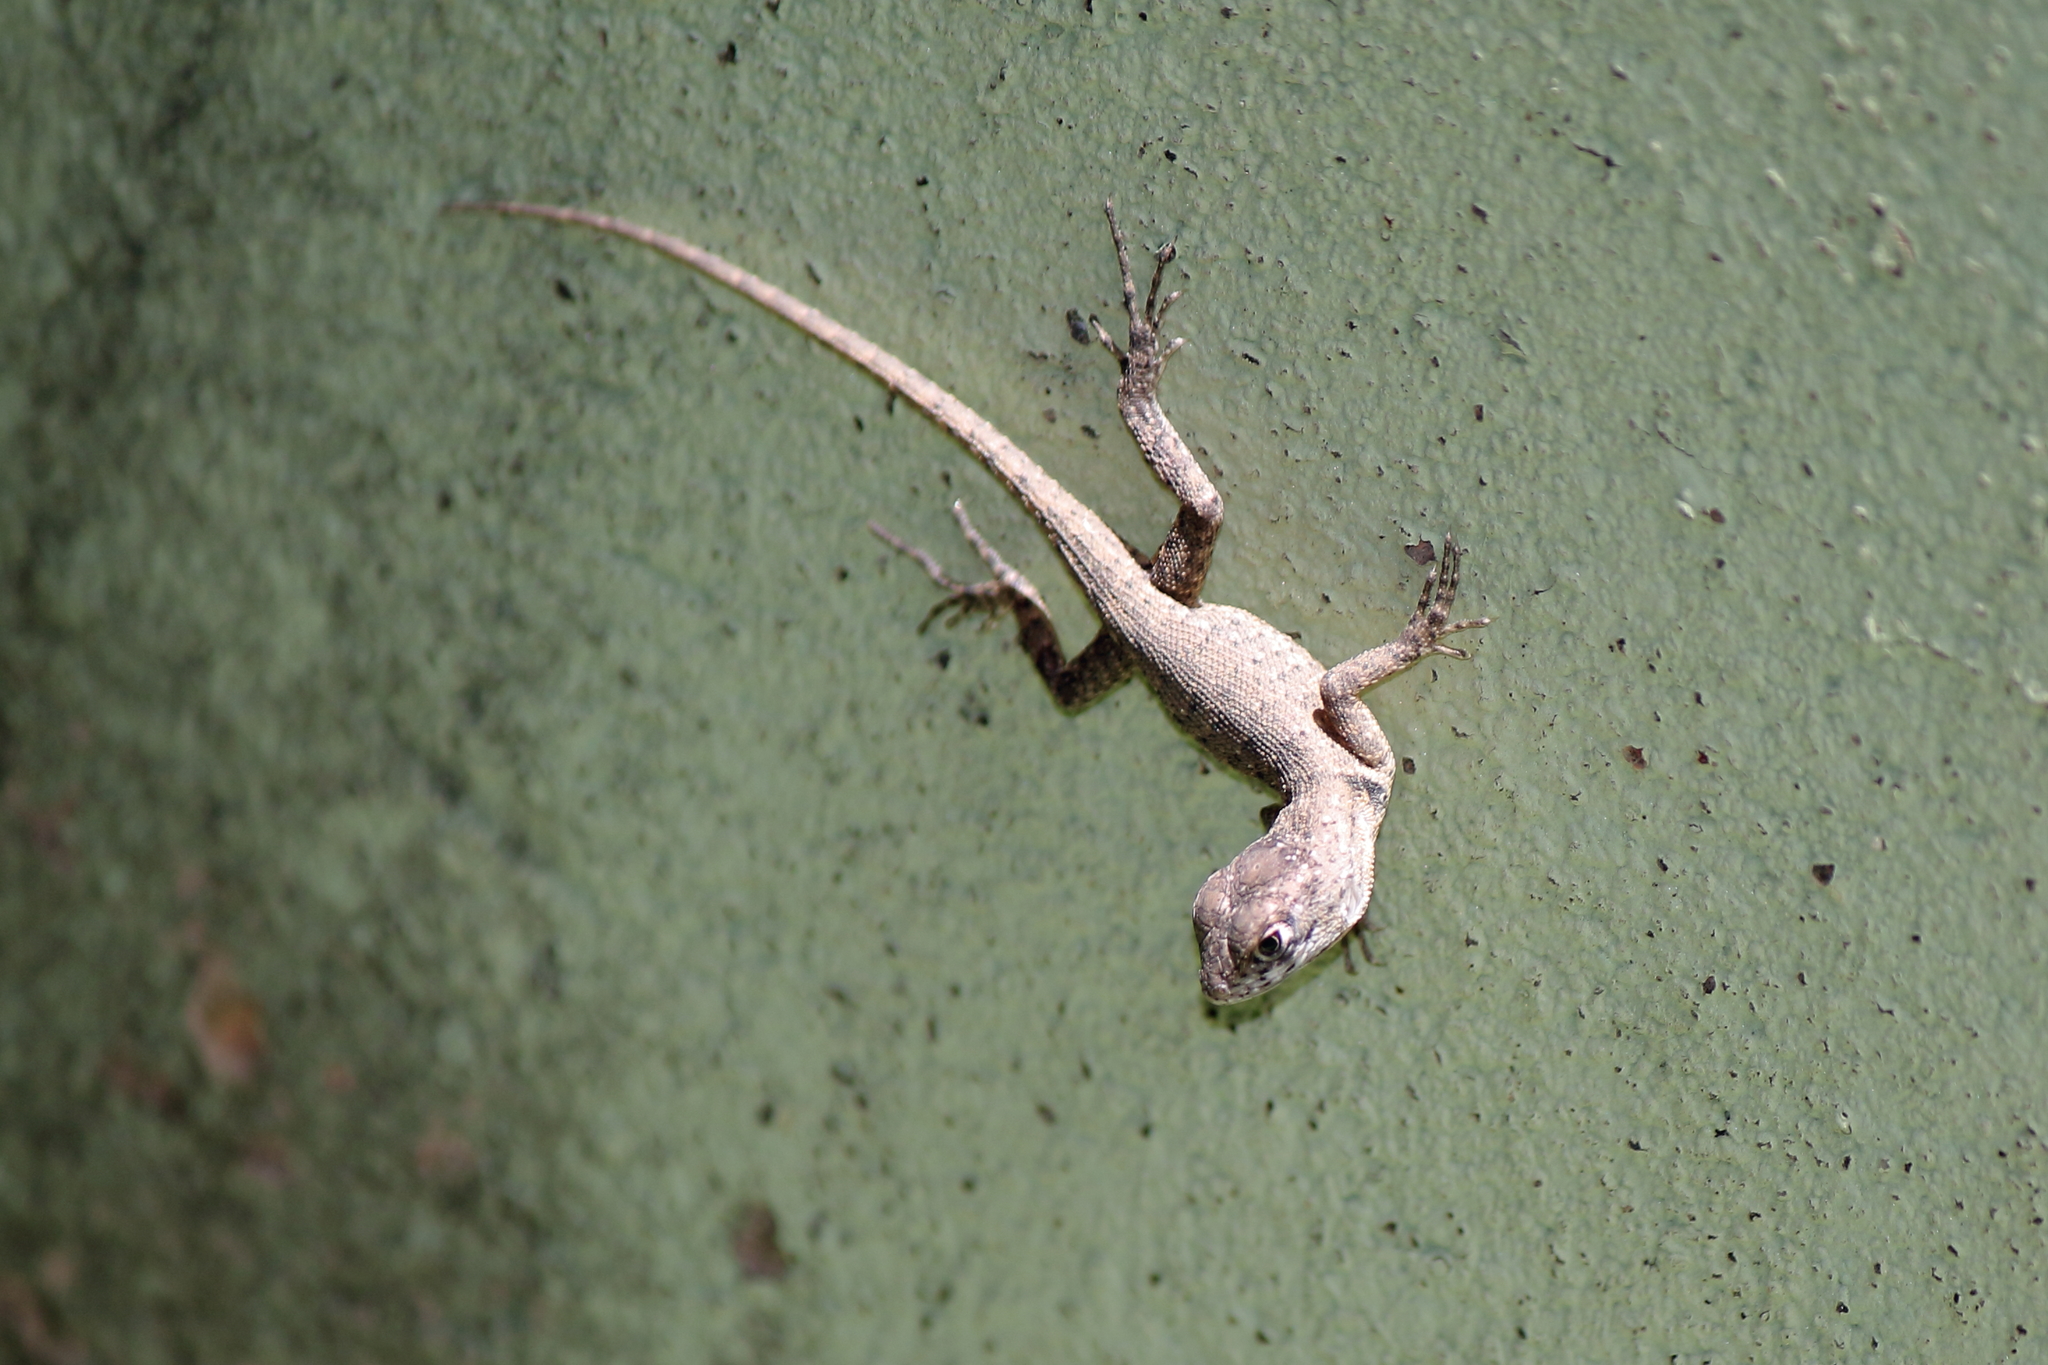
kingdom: Animalia
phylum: Chordata
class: Squamata
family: Tropiduridae
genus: Tropidurus
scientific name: Tropidurus hispidus
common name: Peters' lava lizard
